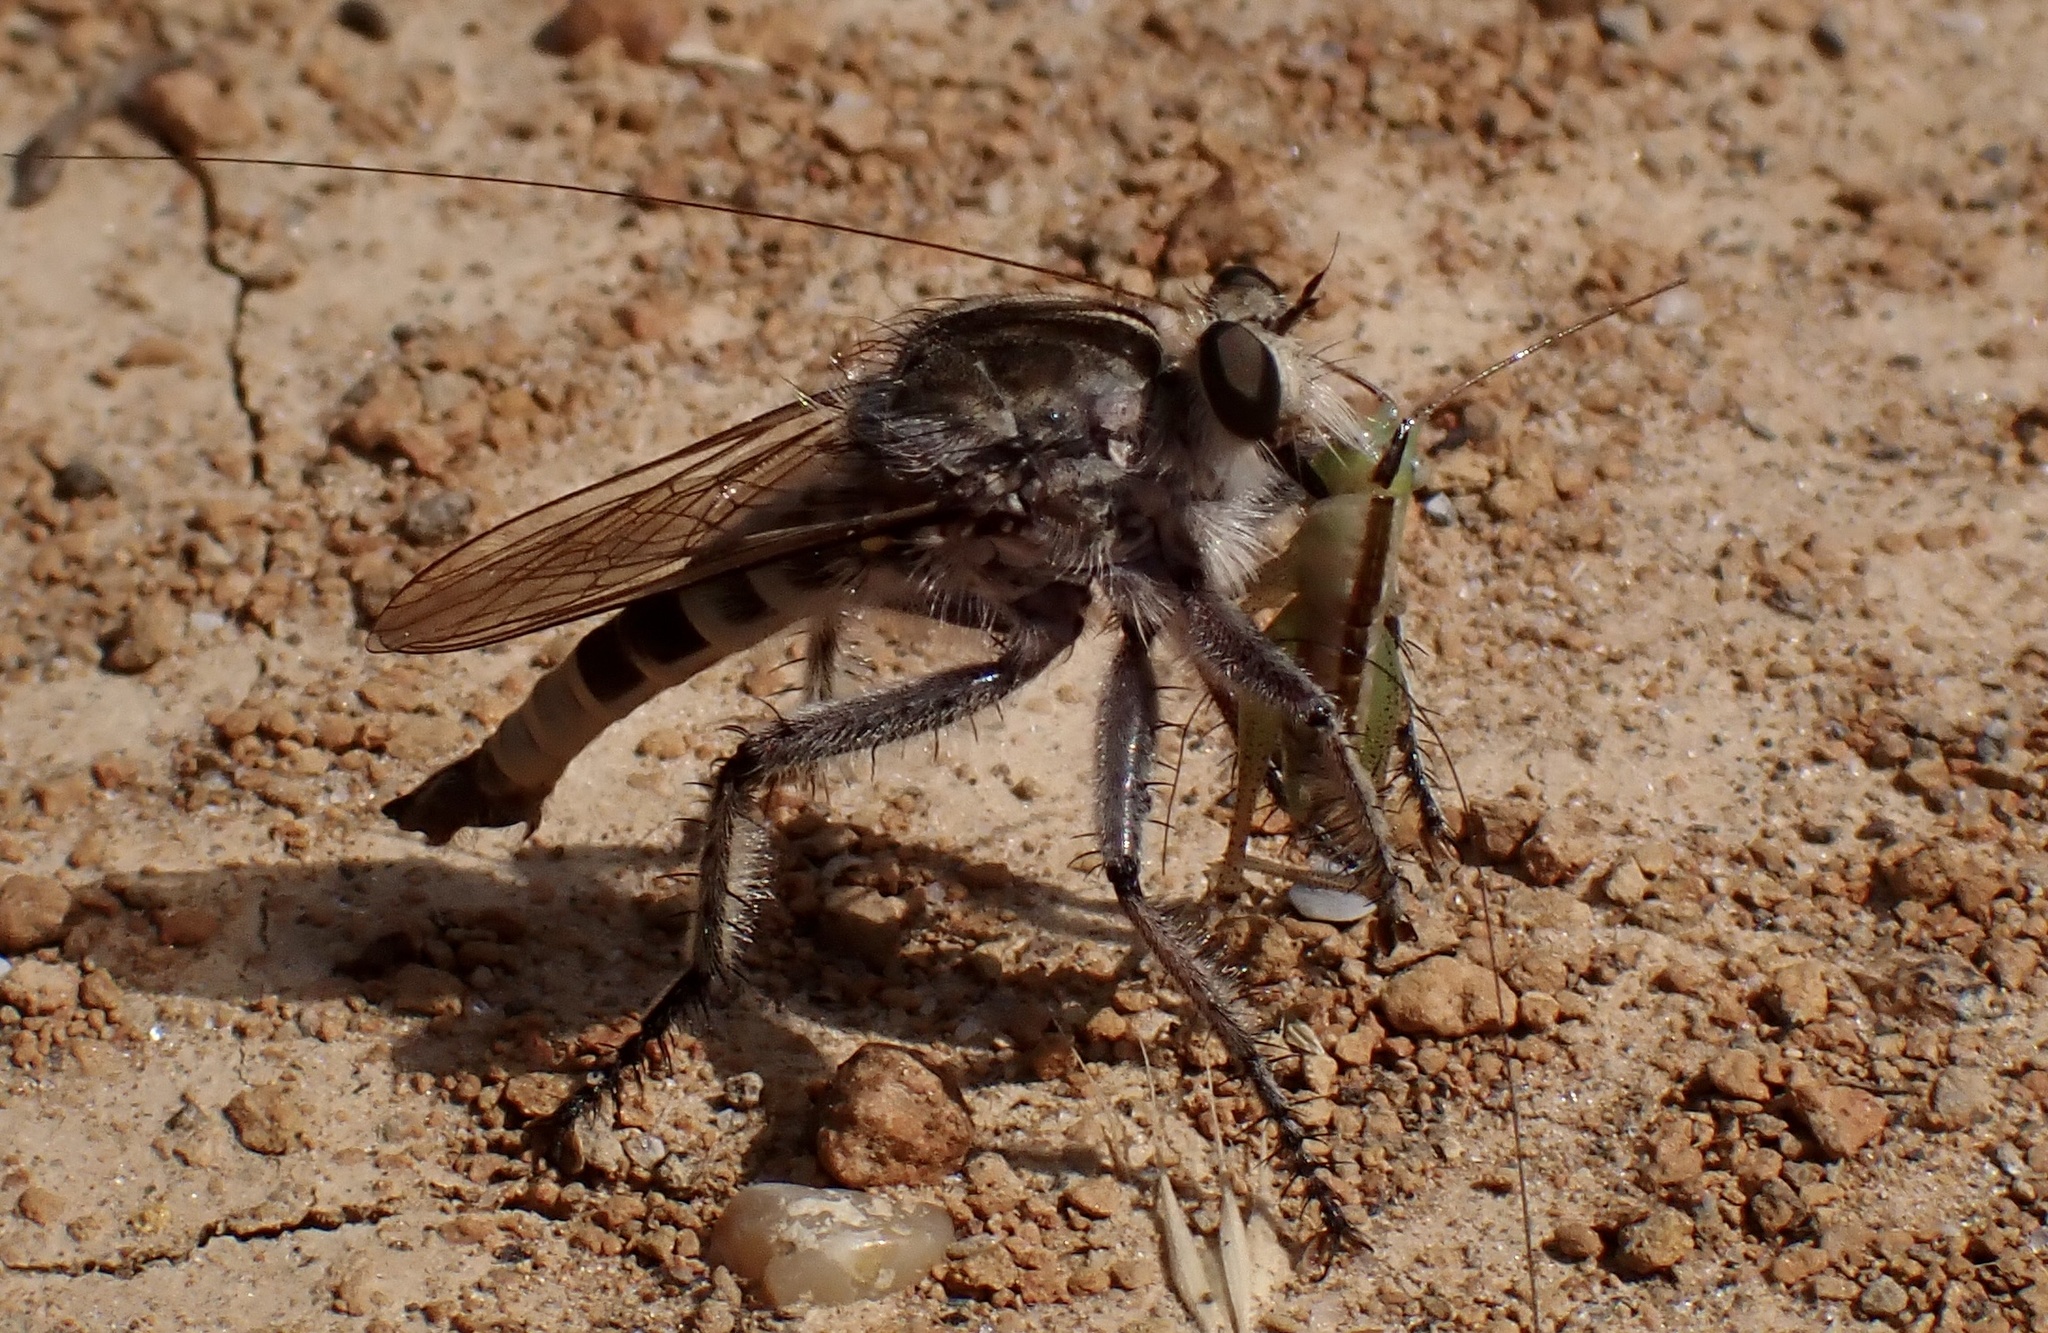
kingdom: Animalia
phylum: Arthropoda
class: Insecta
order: Diptera
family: Asilidae
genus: Triorla
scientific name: Triorla interrupta
